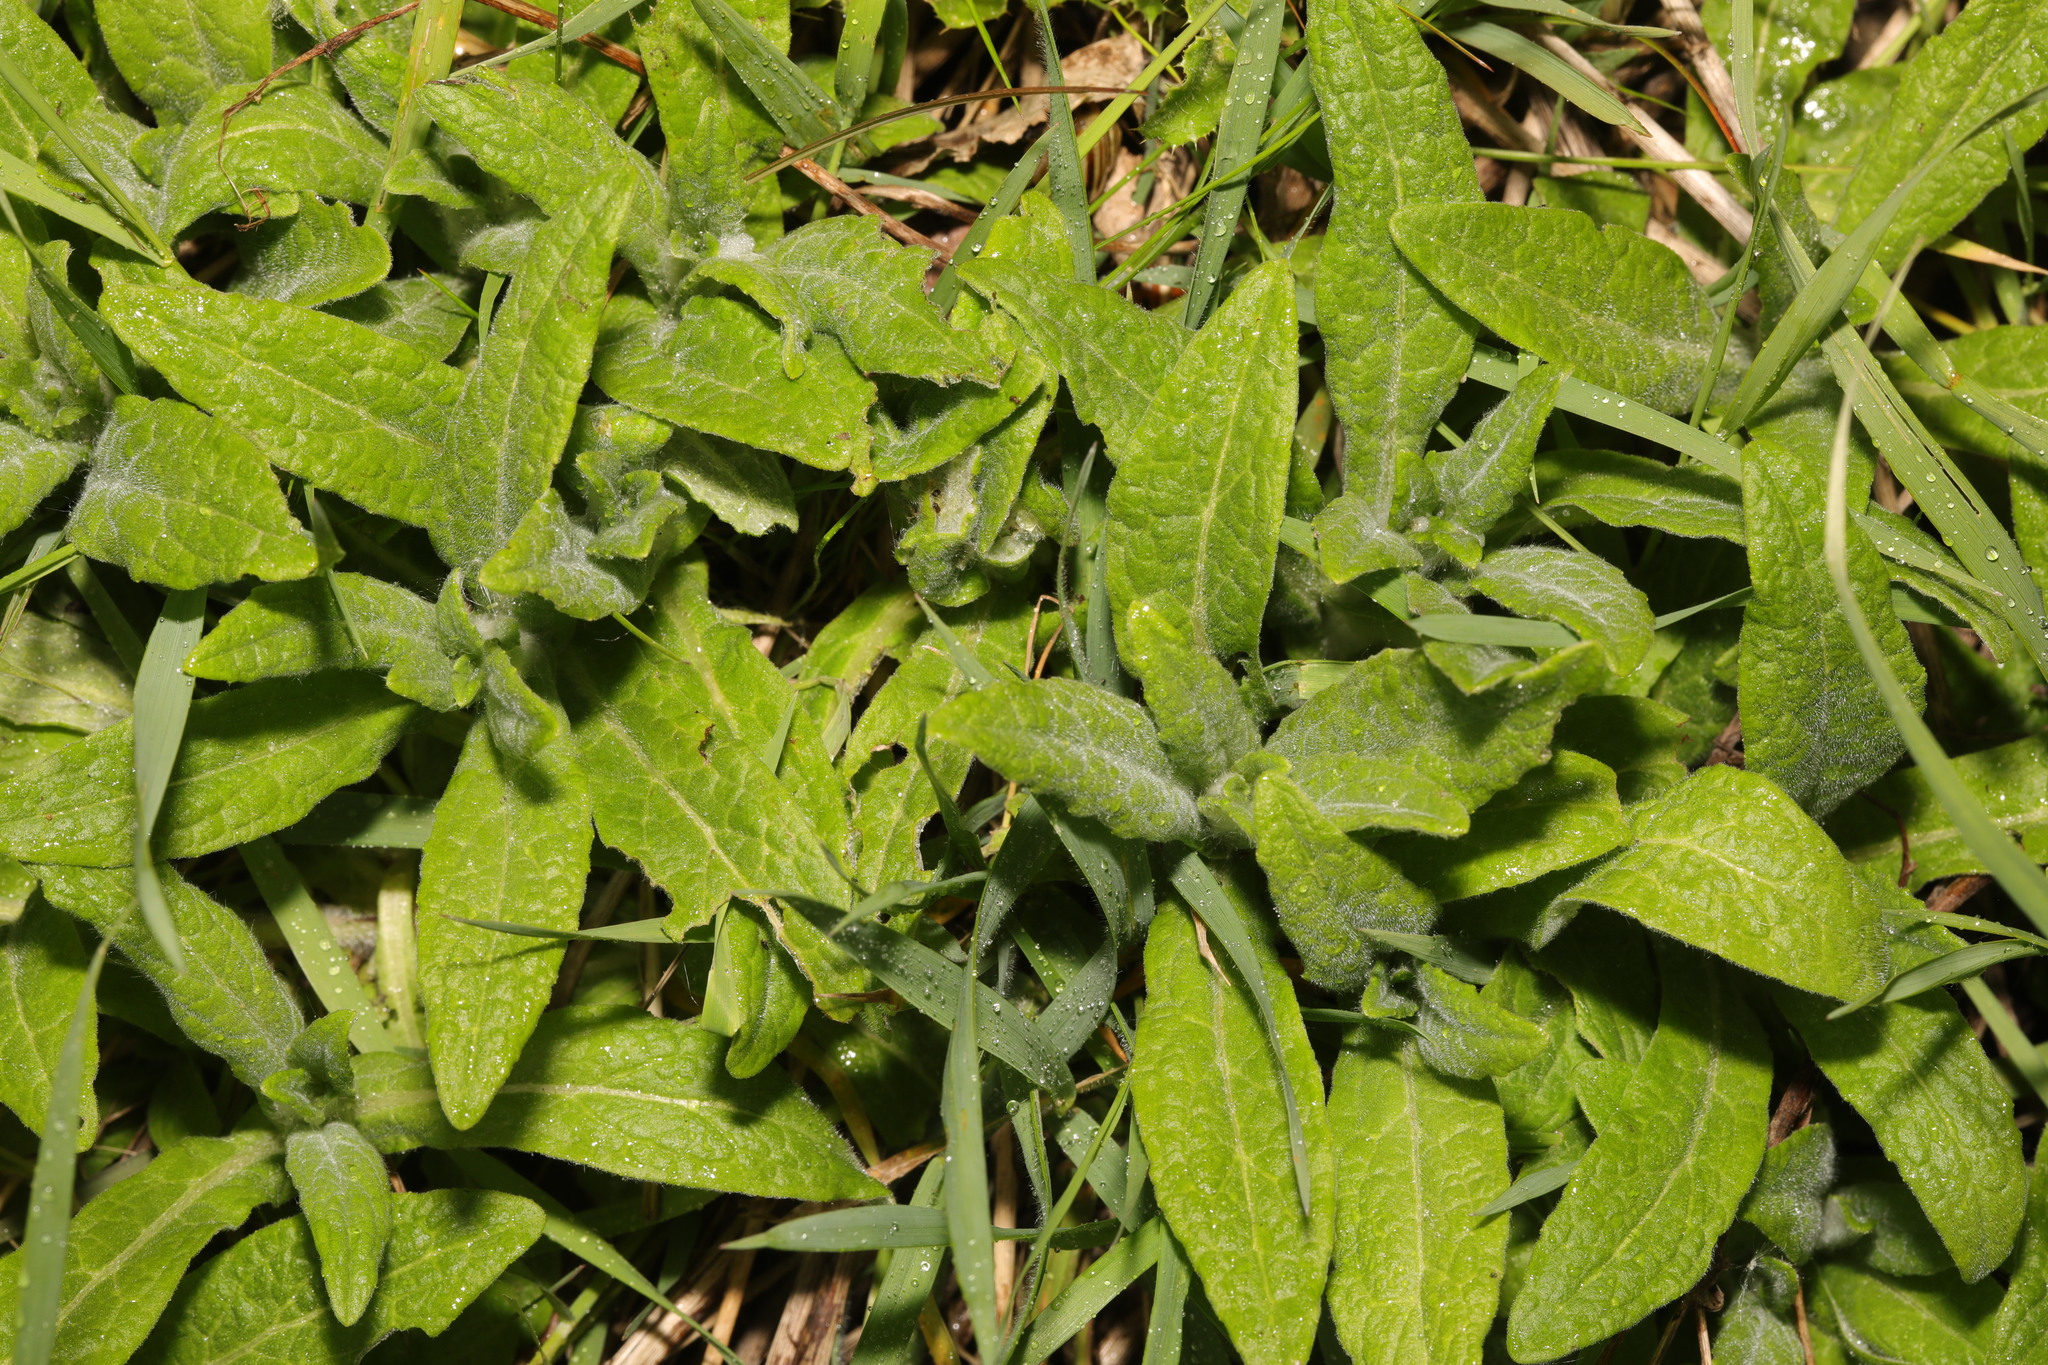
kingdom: Plantae
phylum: Tracheophyta
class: Magnoliopsida
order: Asterales
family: Asteraceae
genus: Pulicaria
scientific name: Pulicaria dysenterica
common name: Common fleabane
